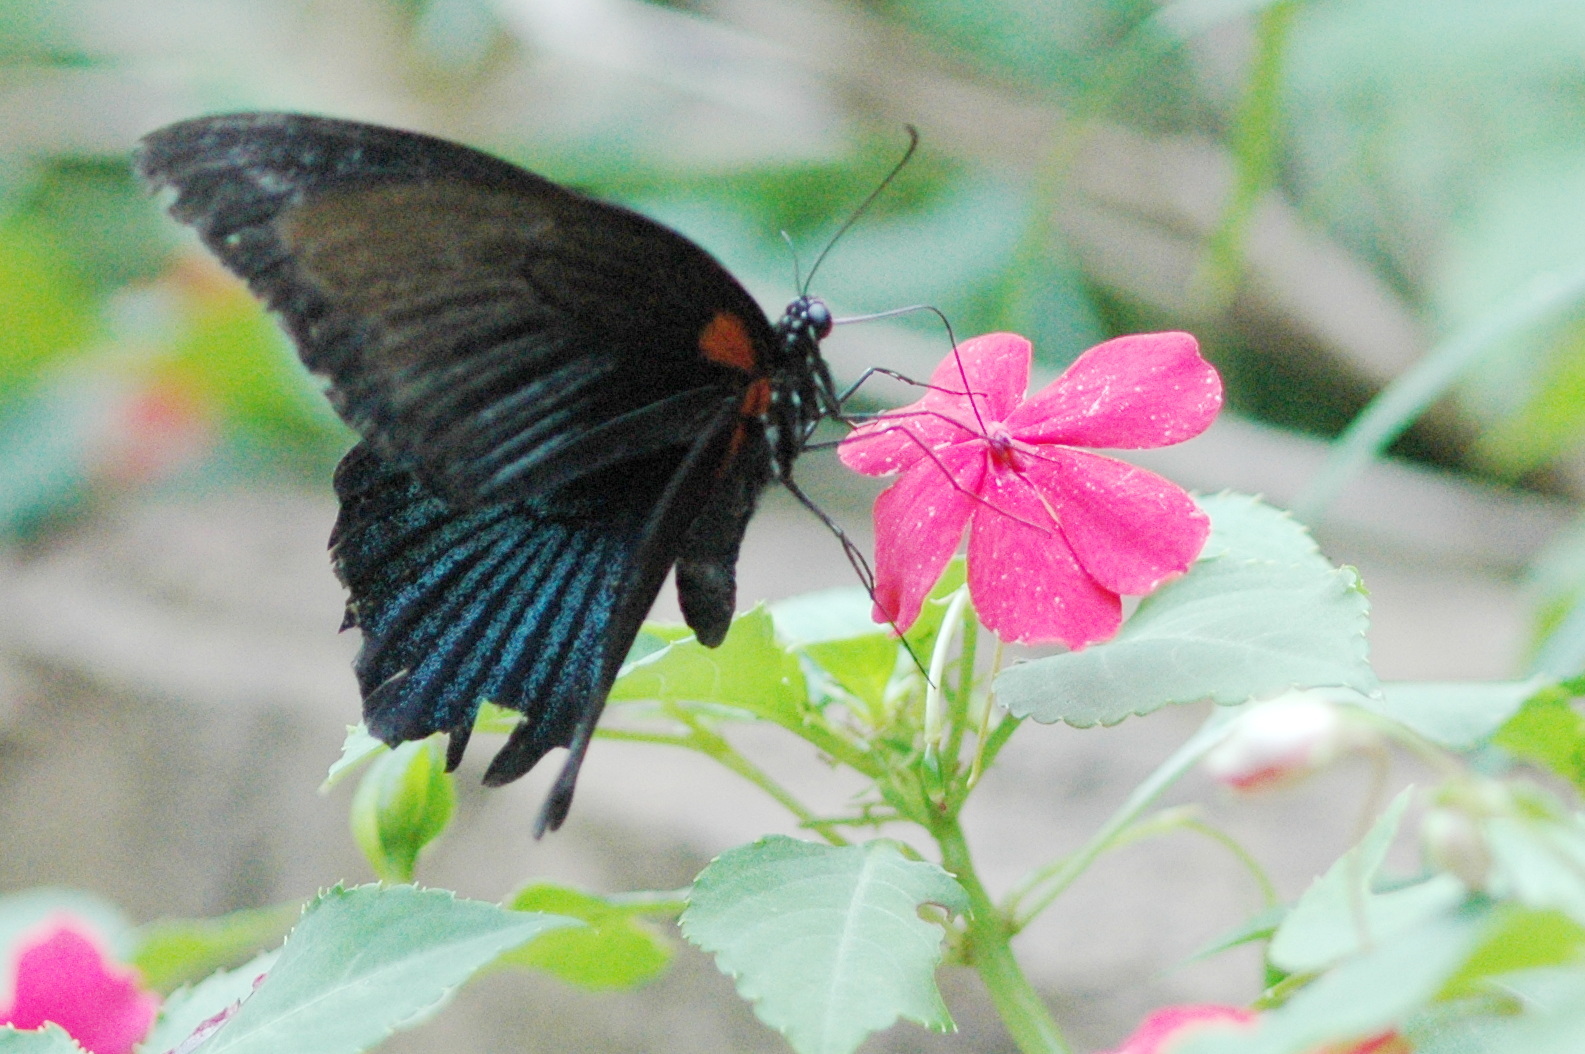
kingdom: Animalia
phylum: Arthropoda
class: Insecta
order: Lepidoptera
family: Papilionidae
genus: Papilio
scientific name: Papilio memnon
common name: Great mormon
